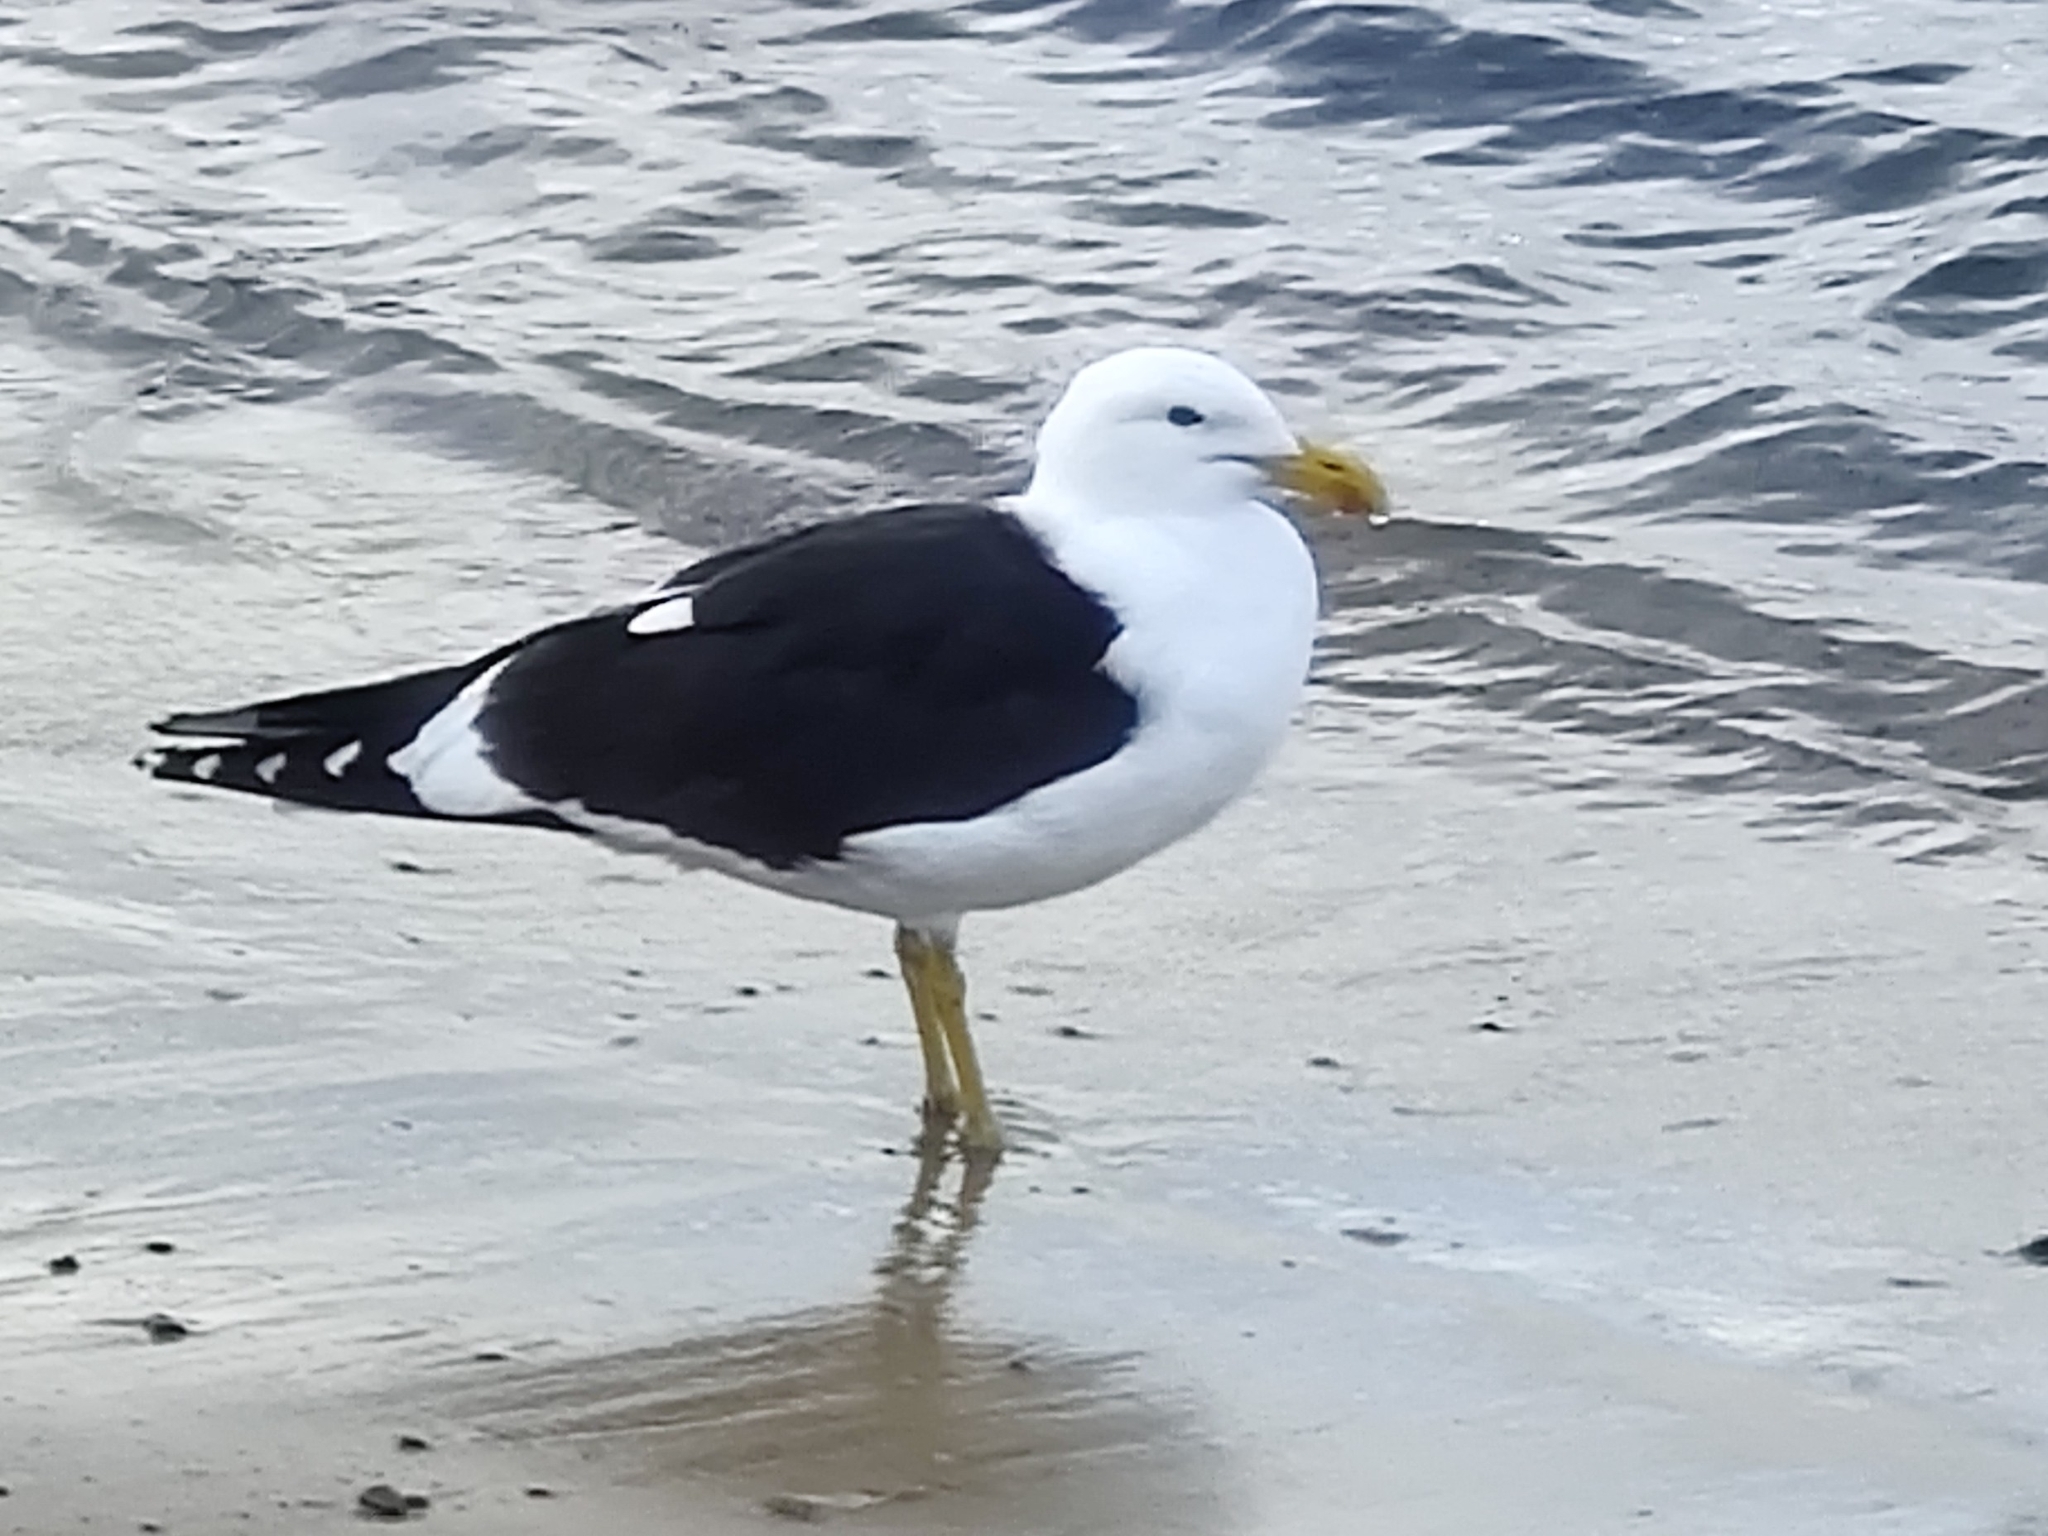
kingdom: Animalia
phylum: Chordata
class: Aves
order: Charadriiformes
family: Laridae
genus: Larus
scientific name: Larus dominicanus
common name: Kelp gull
